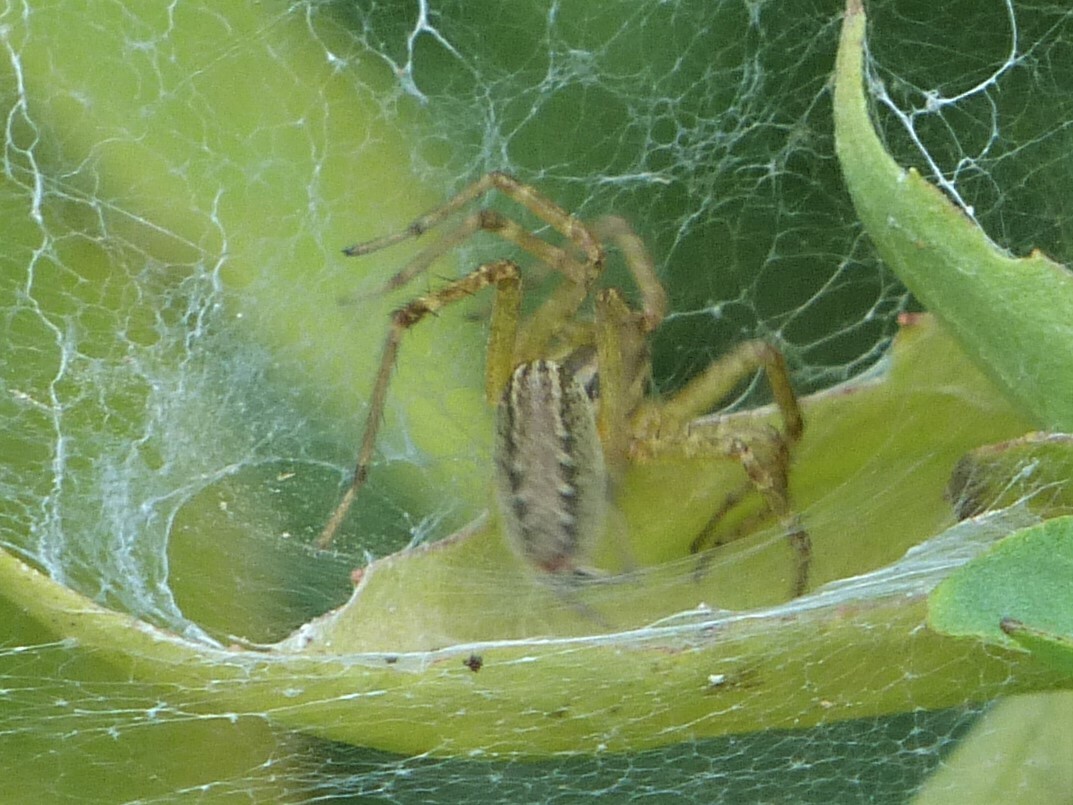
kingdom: Animalia
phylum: Arthropoda
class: Arachnida
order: Araneae
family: Agelenidae
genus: Agelenopsis
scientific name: Agelenopsis
